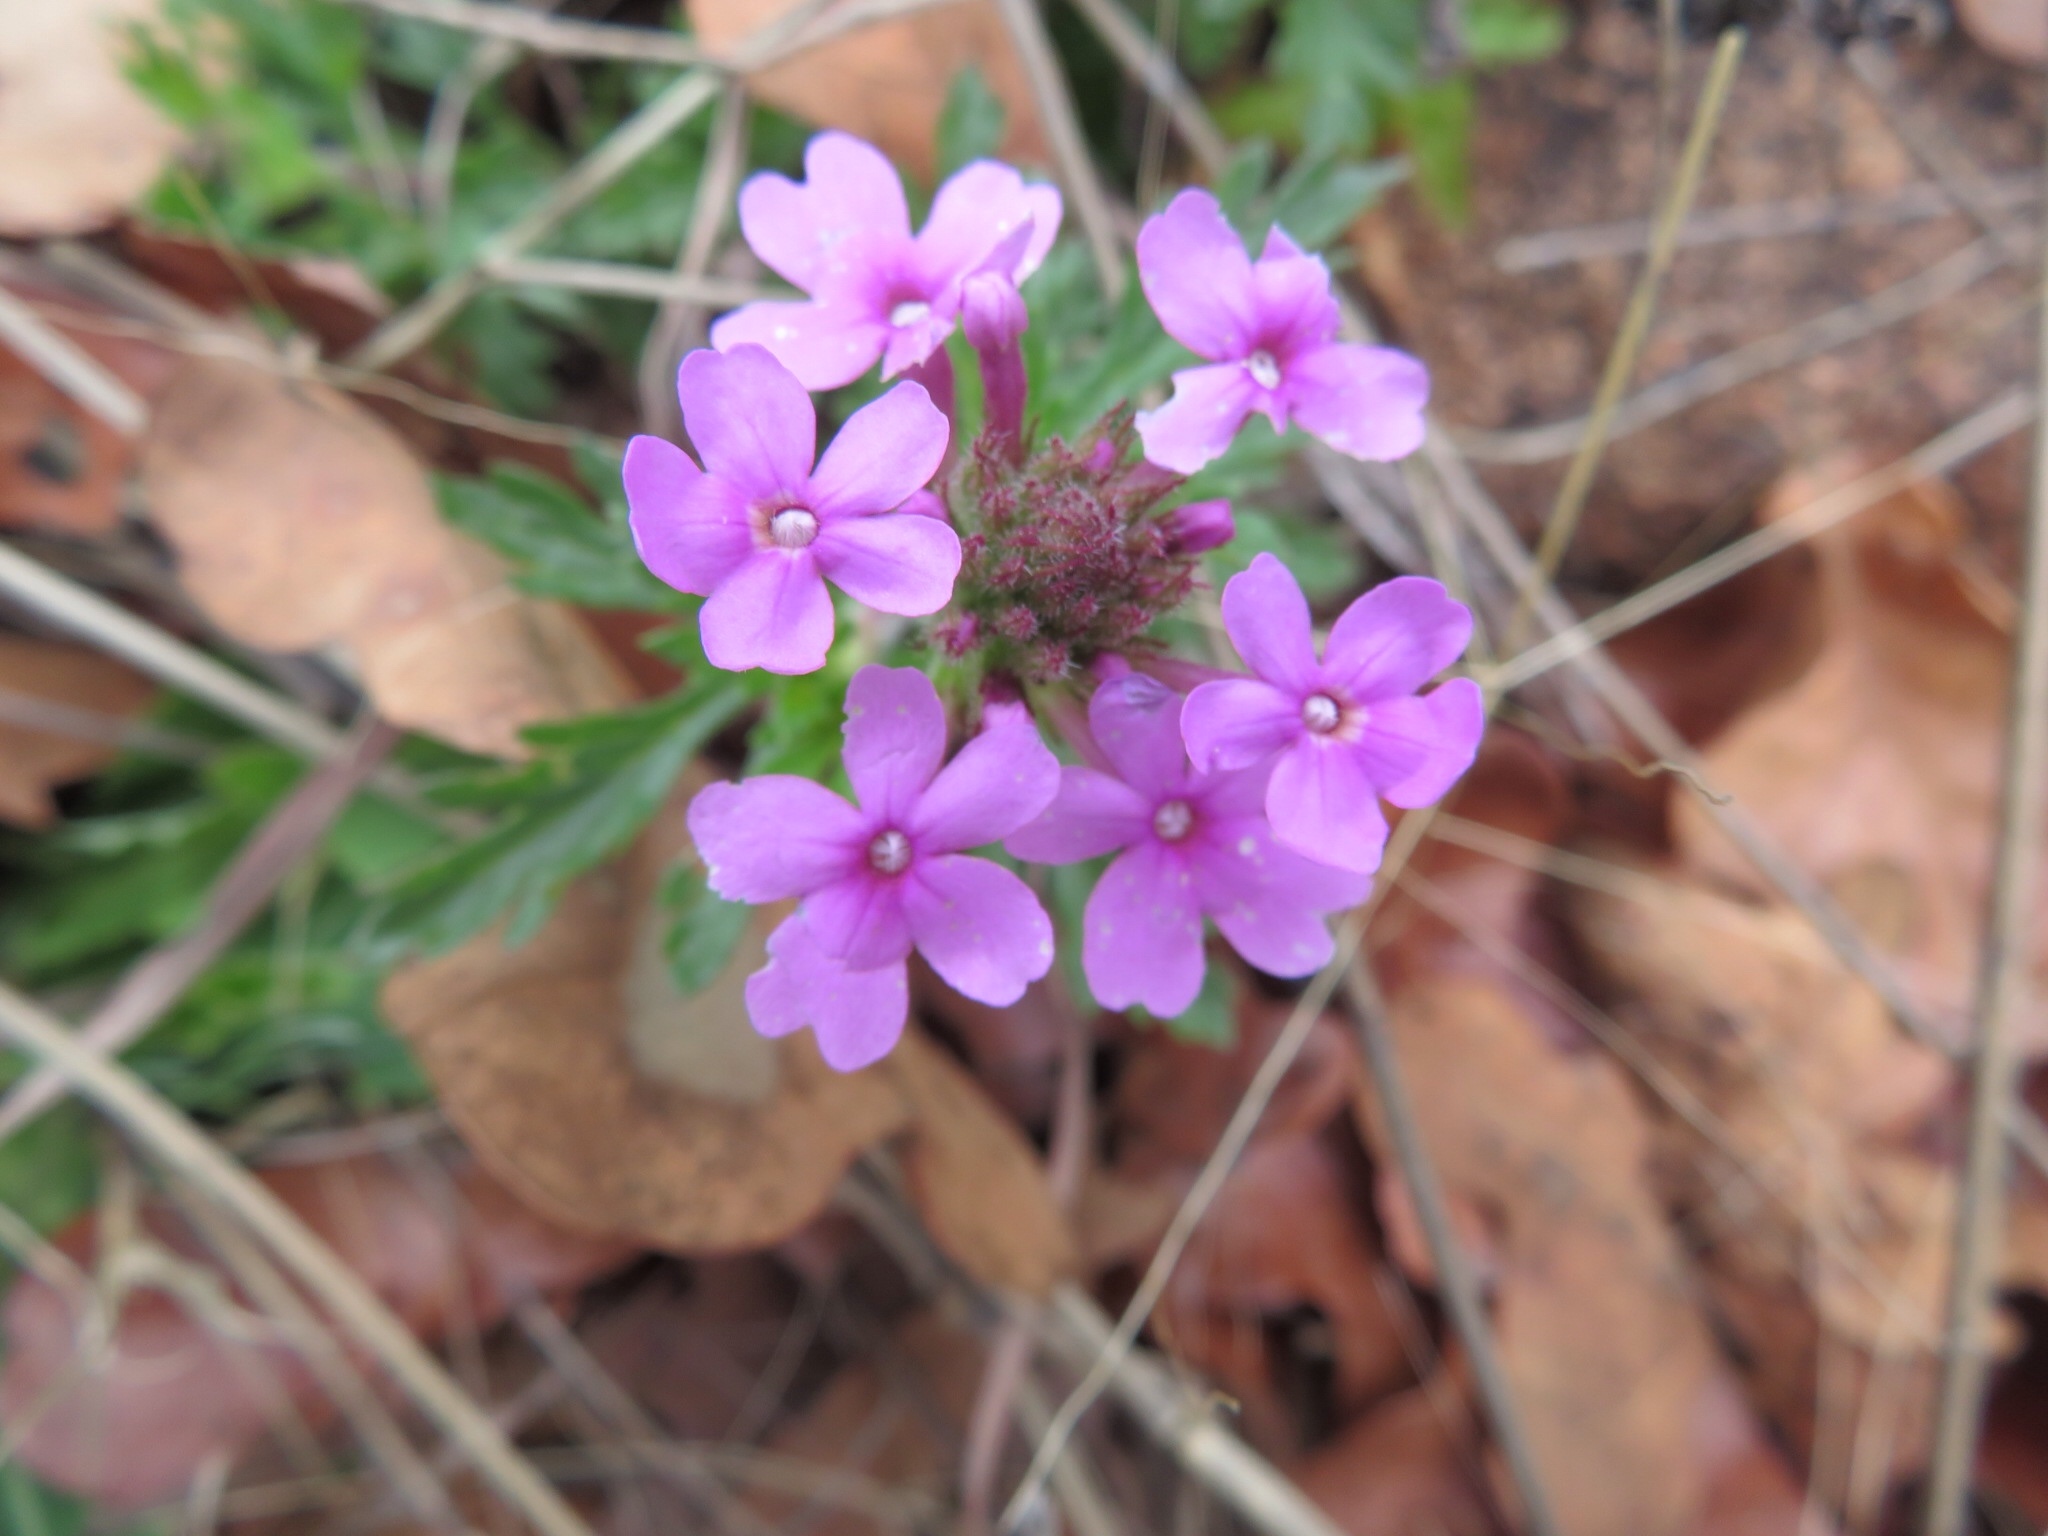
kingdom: Plantae
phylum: Tracheophyta
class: Magnoliopsida
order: Lamiales
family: Verbenaceae
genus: Verbena
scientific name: Verbena canadensis
